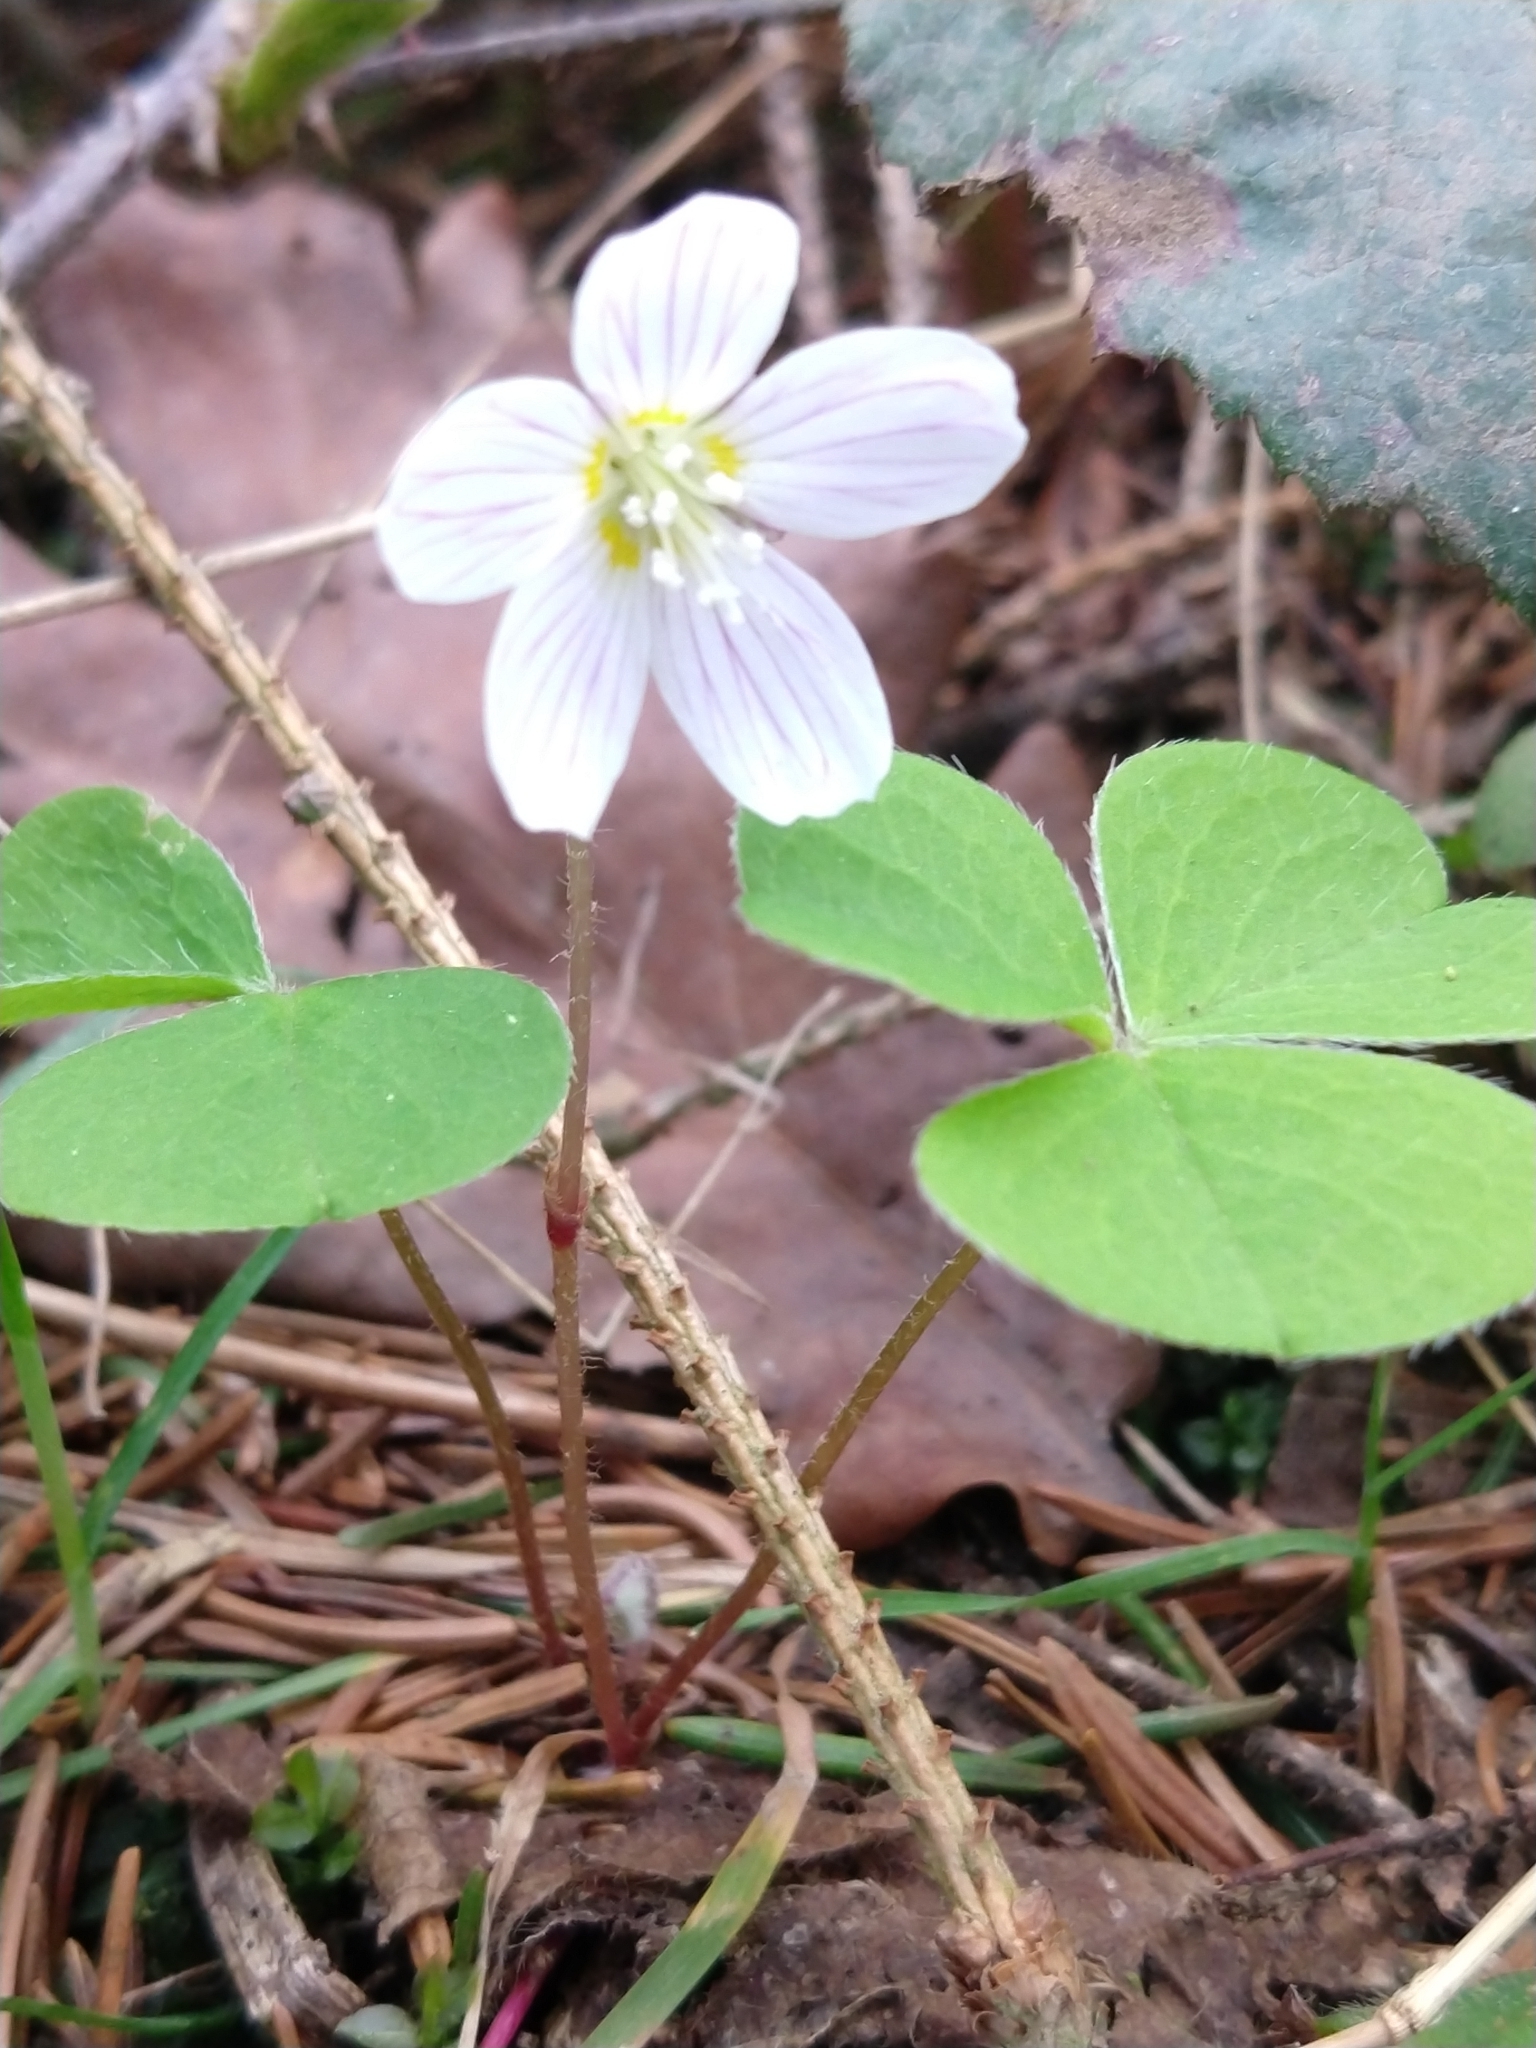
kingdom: Plantae
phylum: Tracheophyta
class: Magnoliopsida
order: Oxalidales
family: Oxalidaceae
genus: Oxalis
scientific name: Oxalis acetosella
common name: Wood-sorrel
